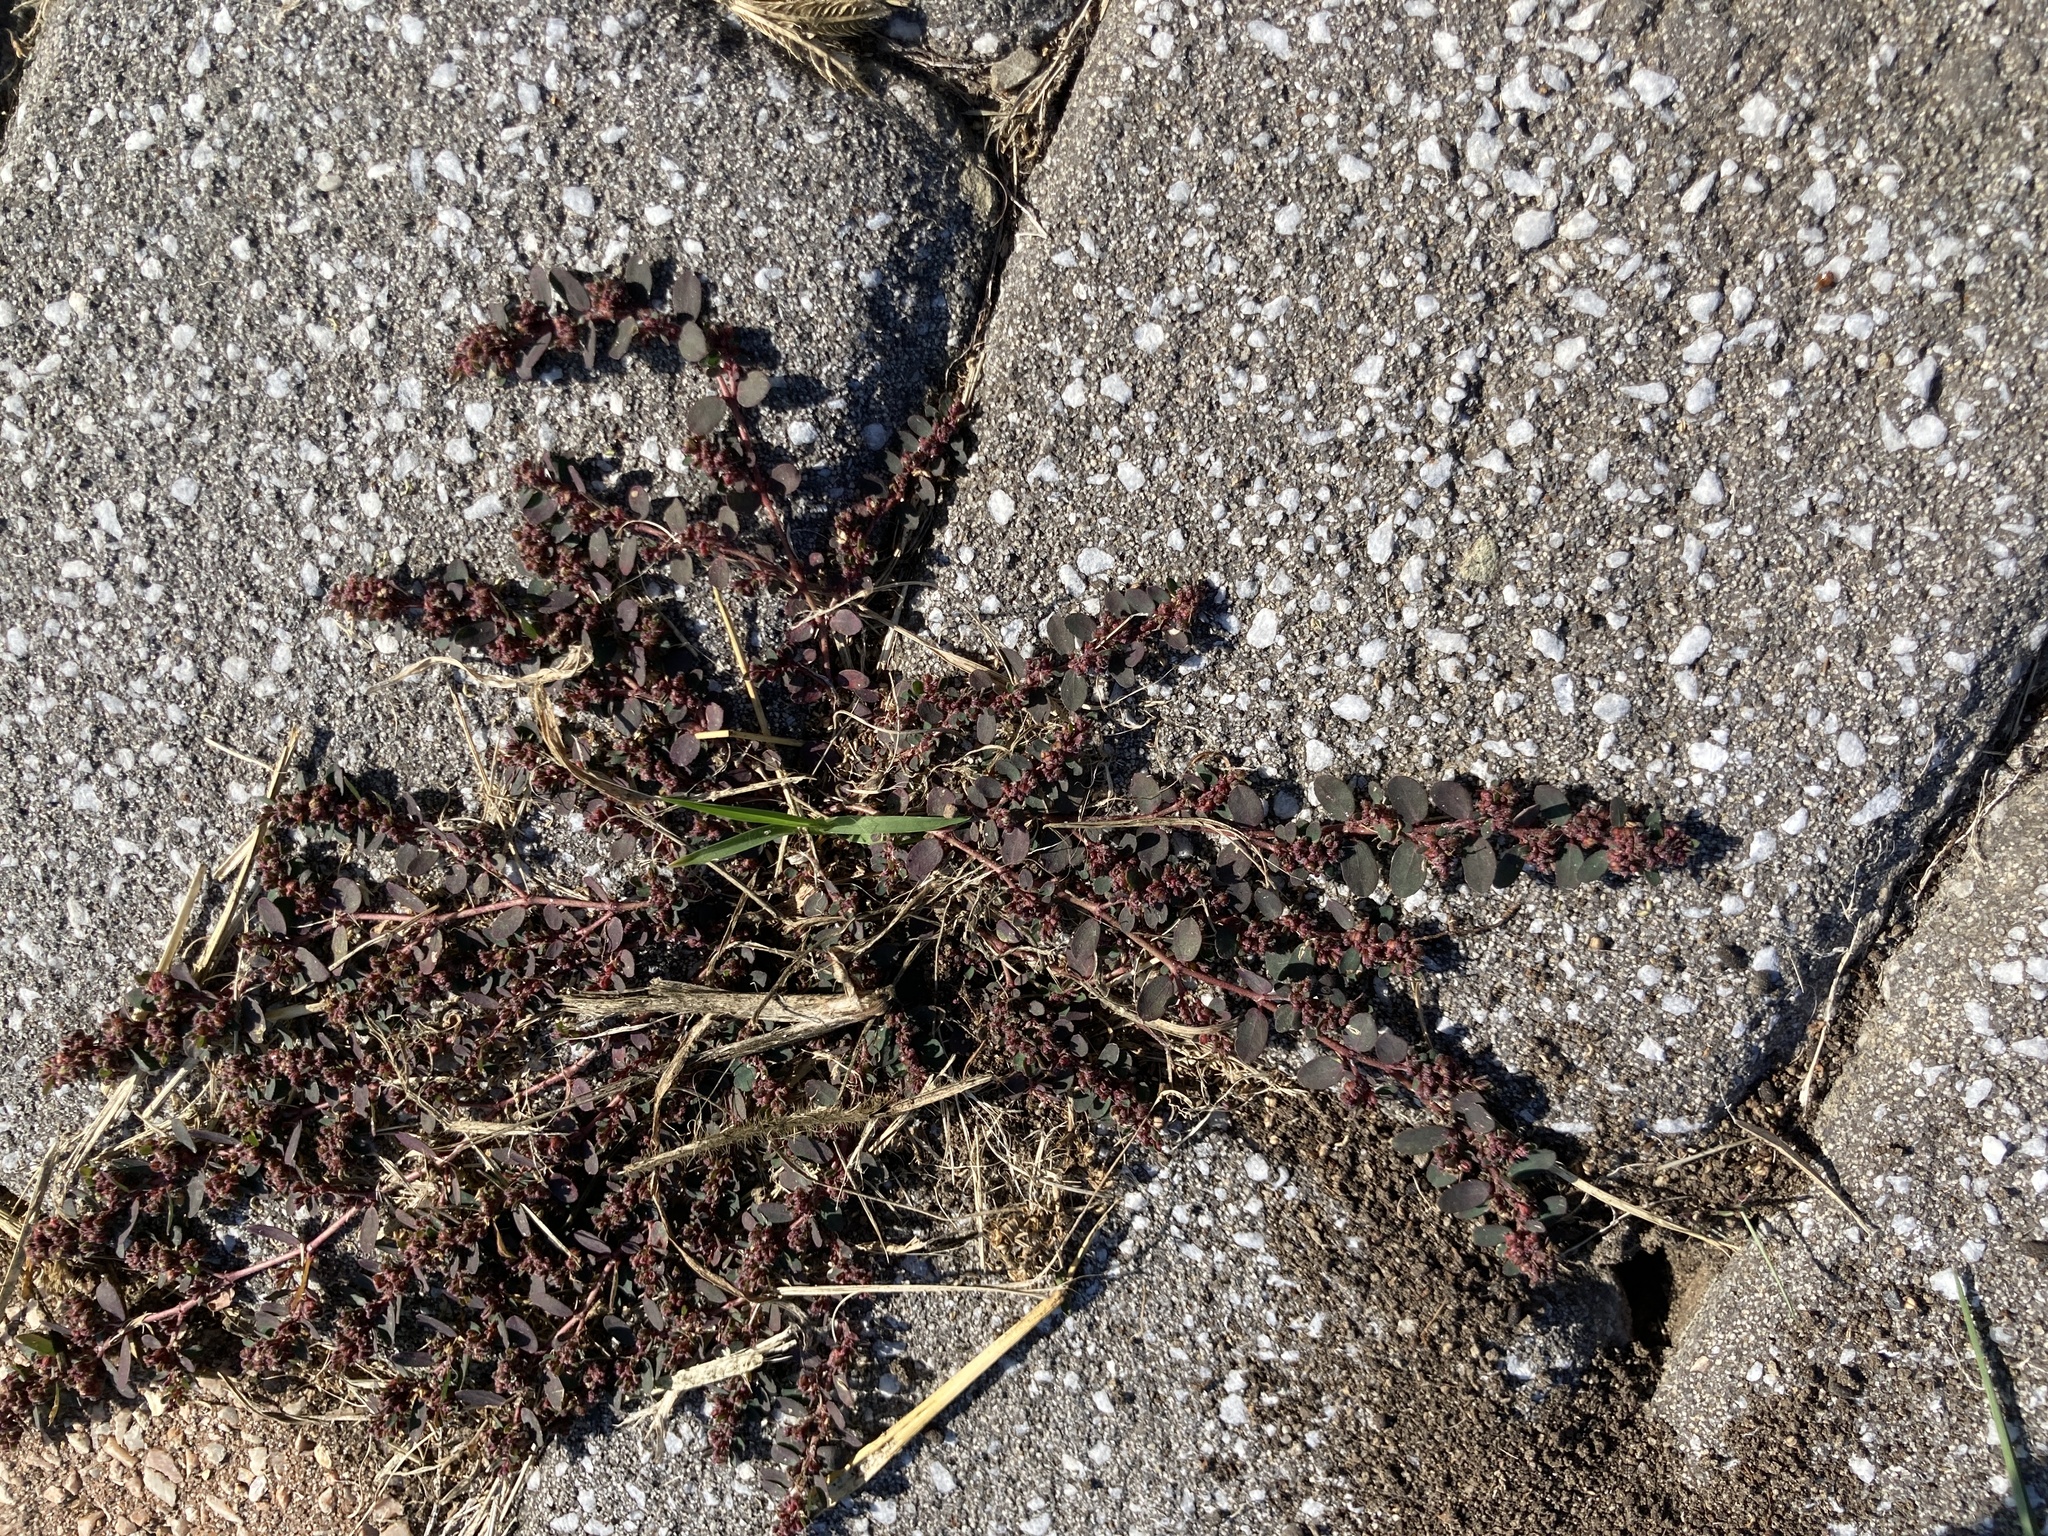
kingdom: Plantae
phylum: Tracheophyta
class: Magnoliopsida
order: Malpighiales
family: Euphorbiaceae
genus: Euphorbia
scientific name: Euphorbia prostrata
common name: Prostrate sandmat
